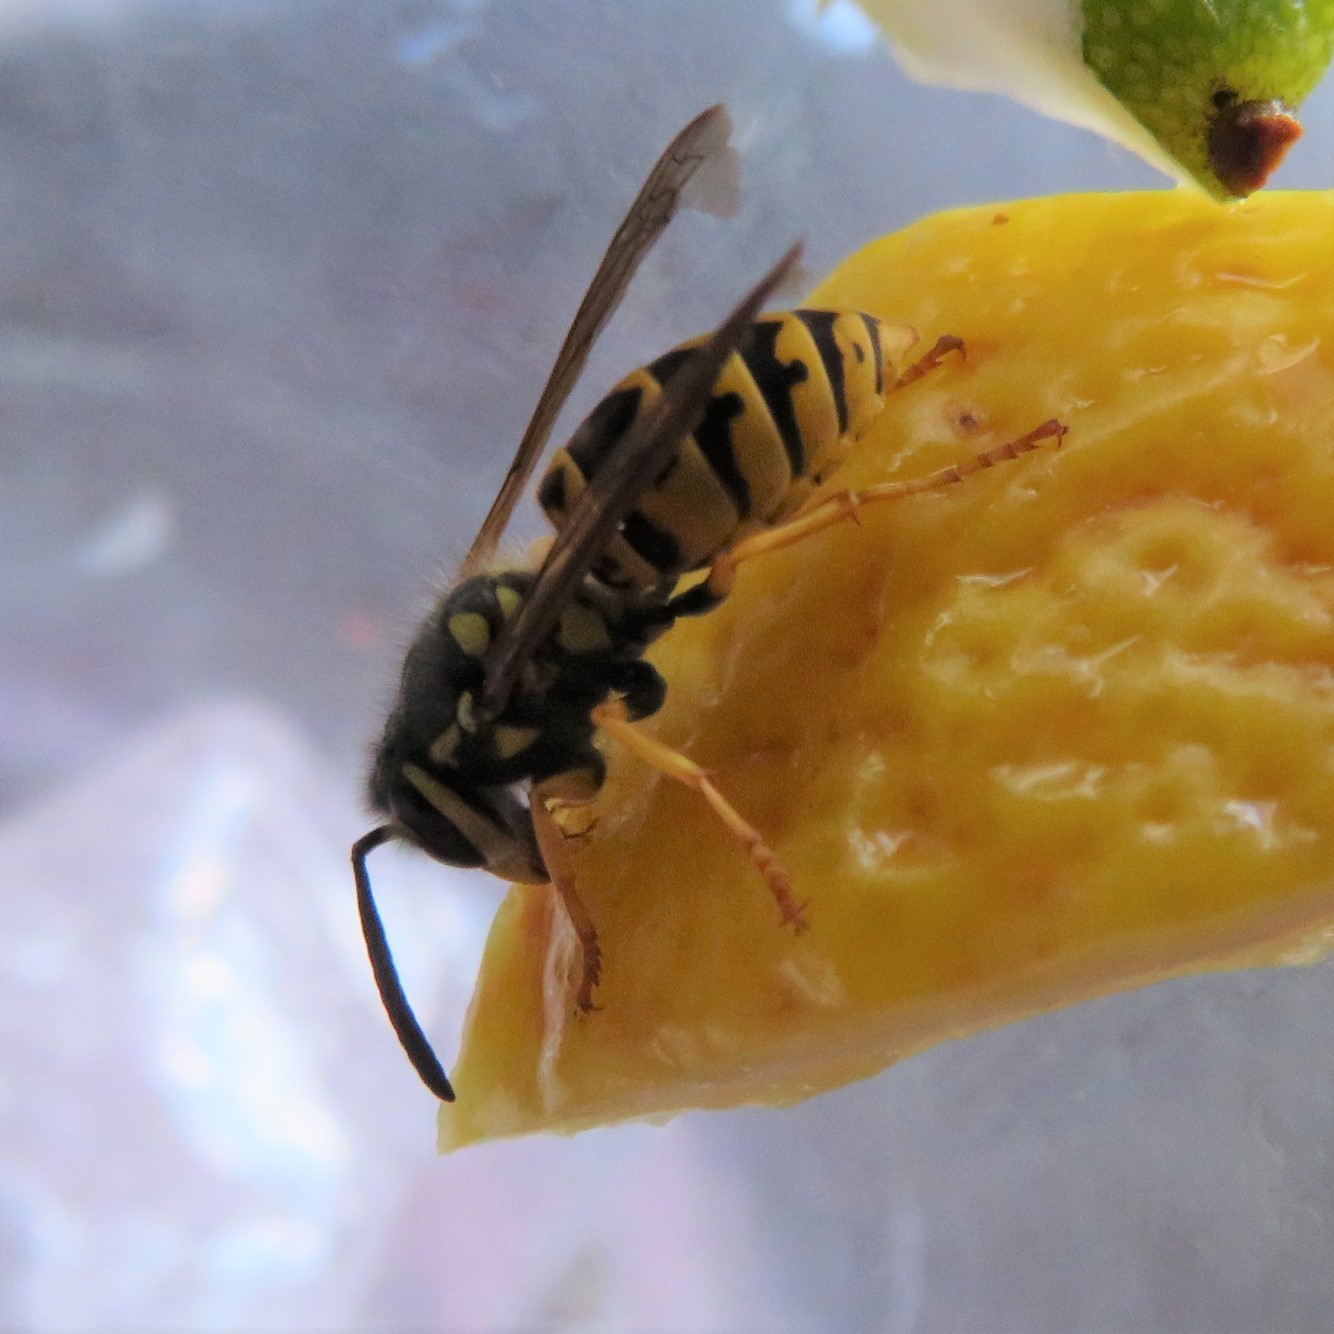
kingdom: Animalia
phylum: Arthropoda
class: Insecta
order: Hymenoptera
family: Vespidae
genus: Vespula
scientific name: Vespula germanica
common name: German wasp
